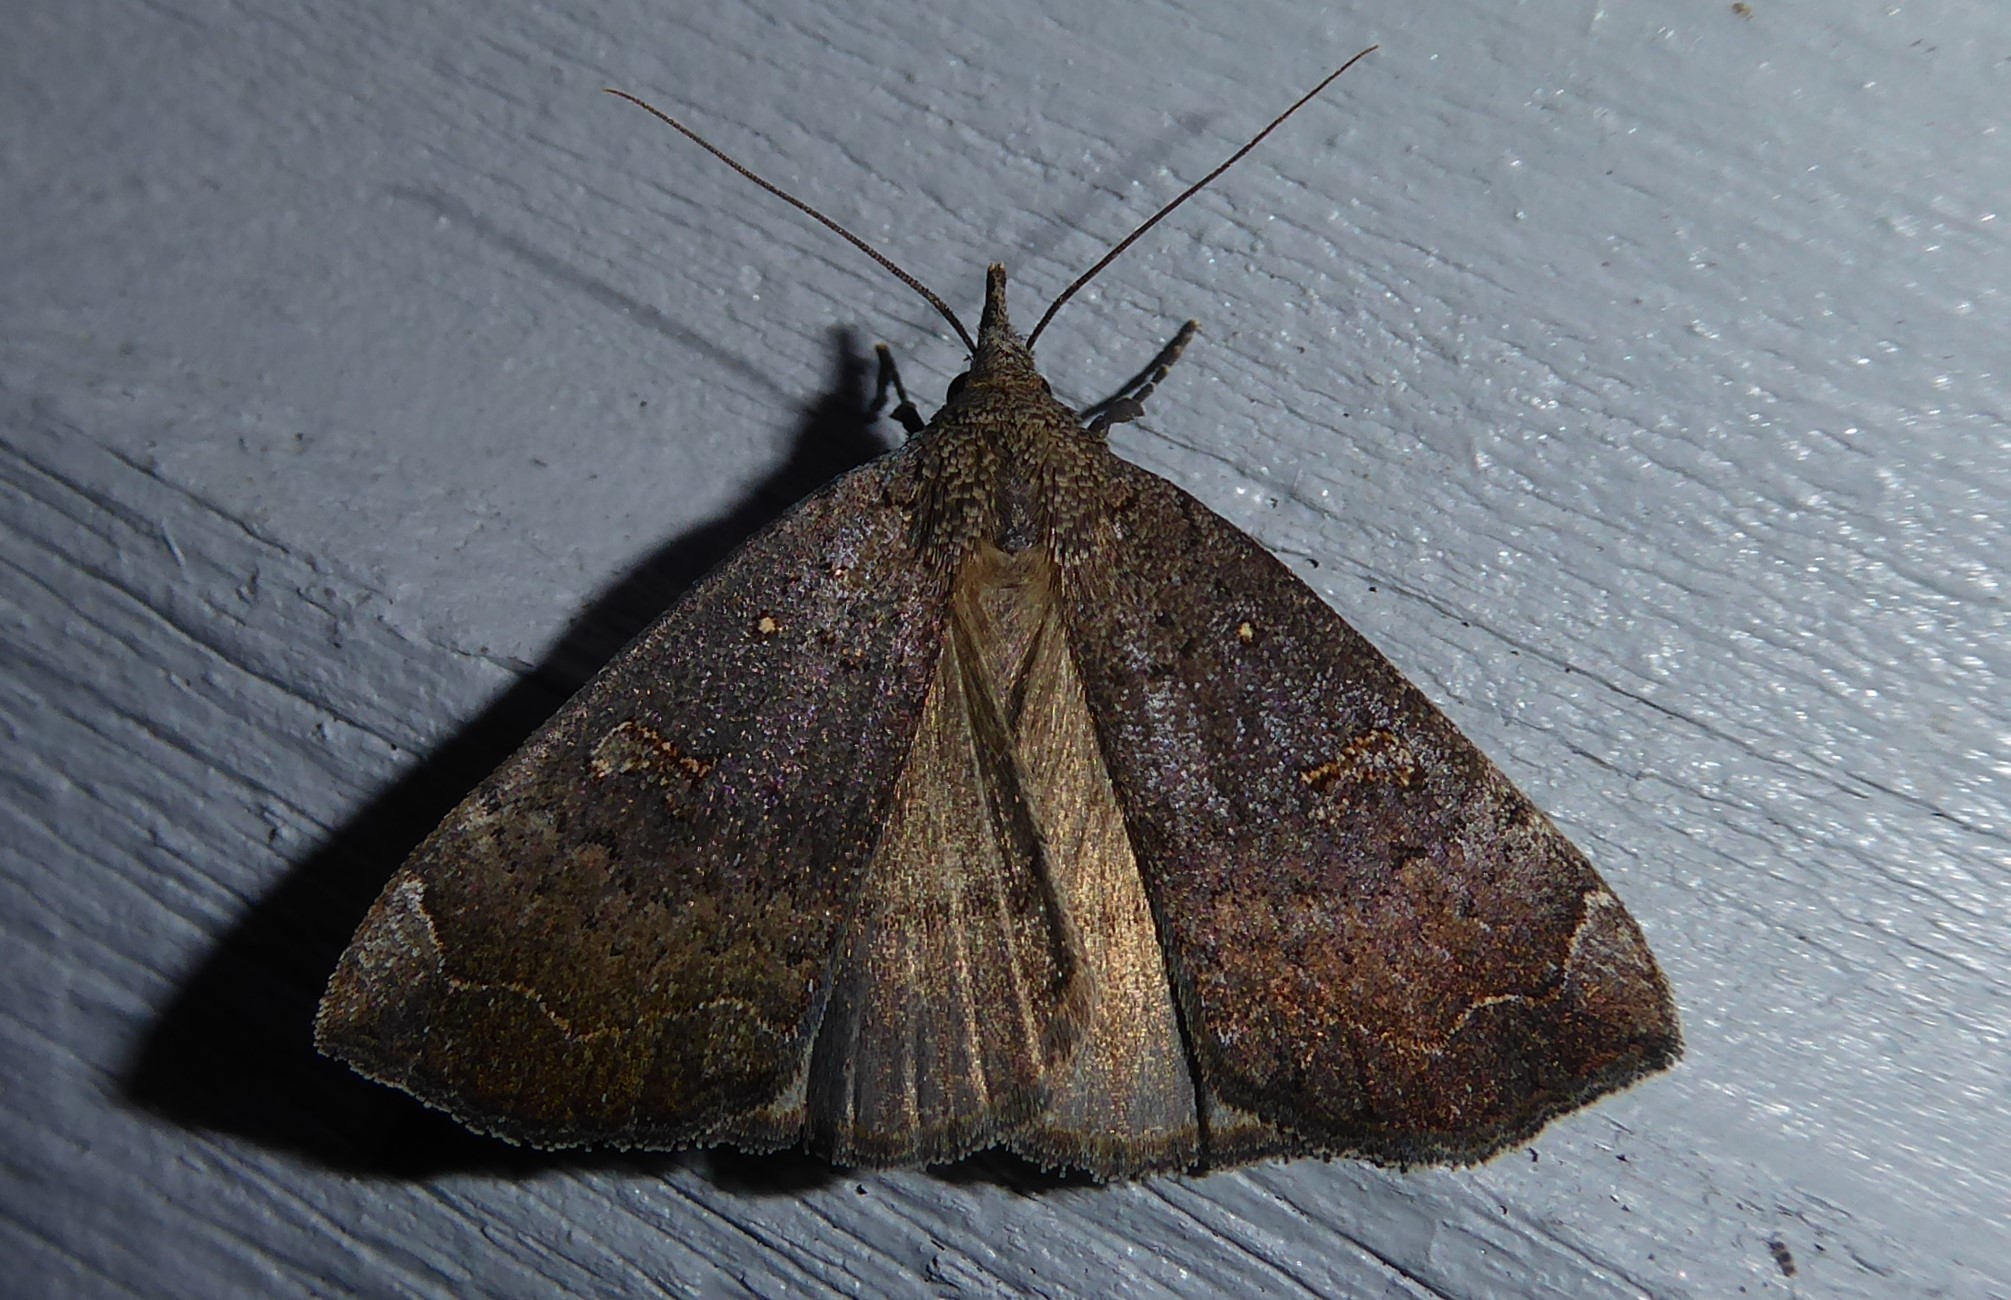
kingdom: Animalia
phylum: Arthropoda
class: Insecta
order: Lepidoptera
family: Erebidae
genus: Rhapsa
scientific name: Rhapsa scotosialis
